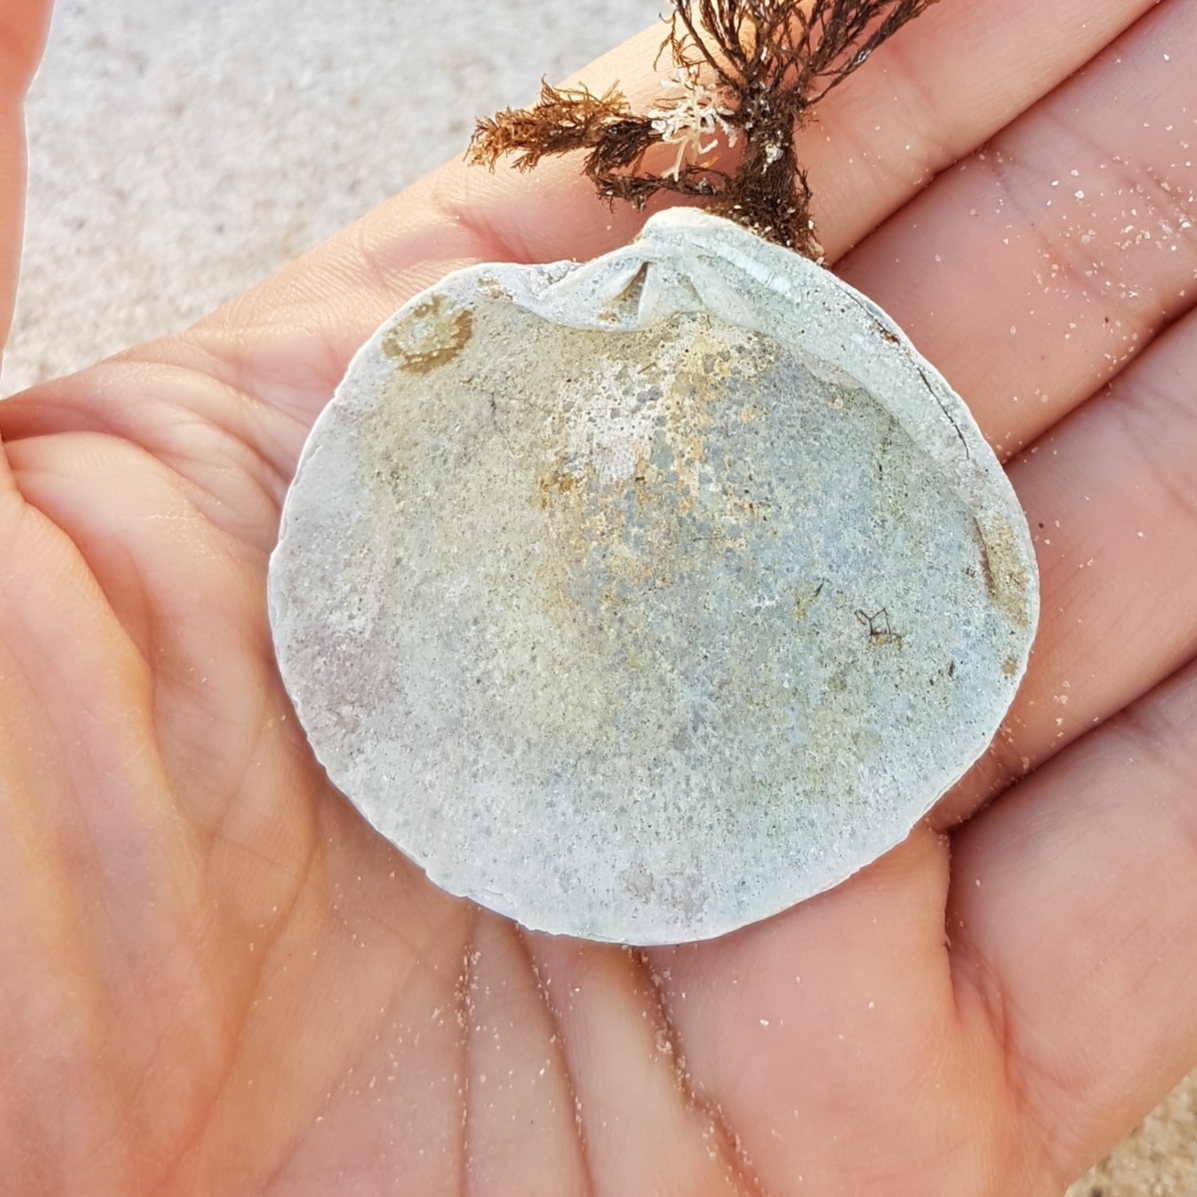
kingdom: Animalia
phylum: Mollusca
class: Bivalvia
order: Venerida
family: Veneridae
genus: Dosinia
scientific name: Dosinia exoleta
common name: Rayed artemis
